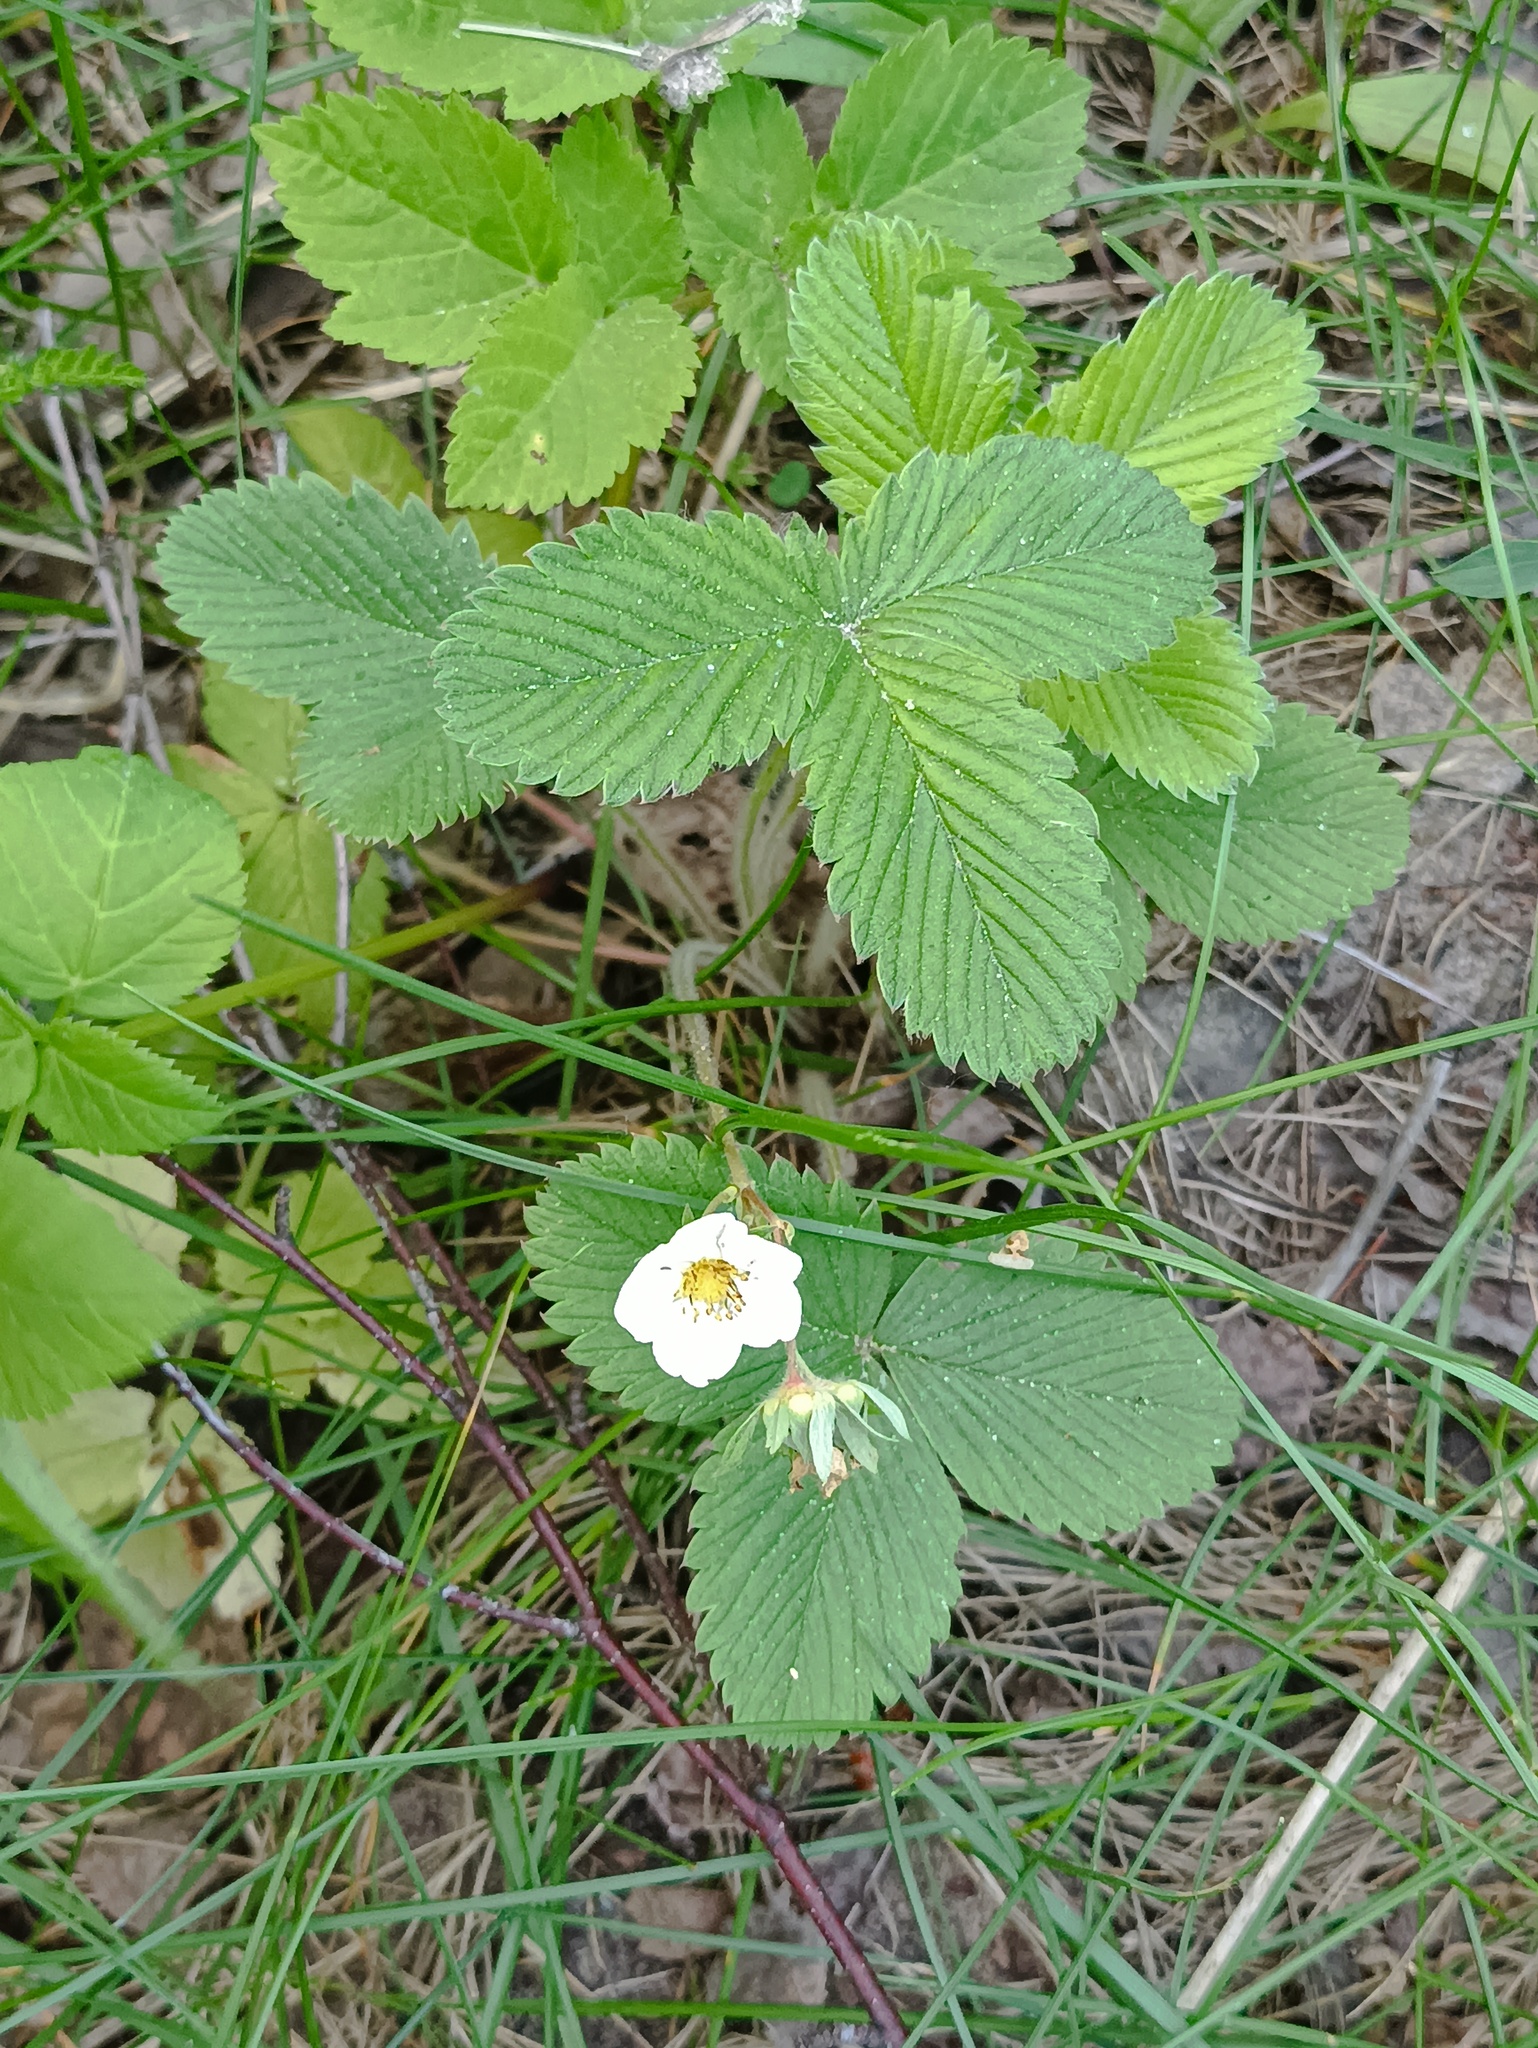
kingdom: Plantae
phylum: Tracheophyta
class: Magnoliopsida
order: Rosales
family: Rosaceae
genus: Fragaria
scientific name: Fragaria viridis
